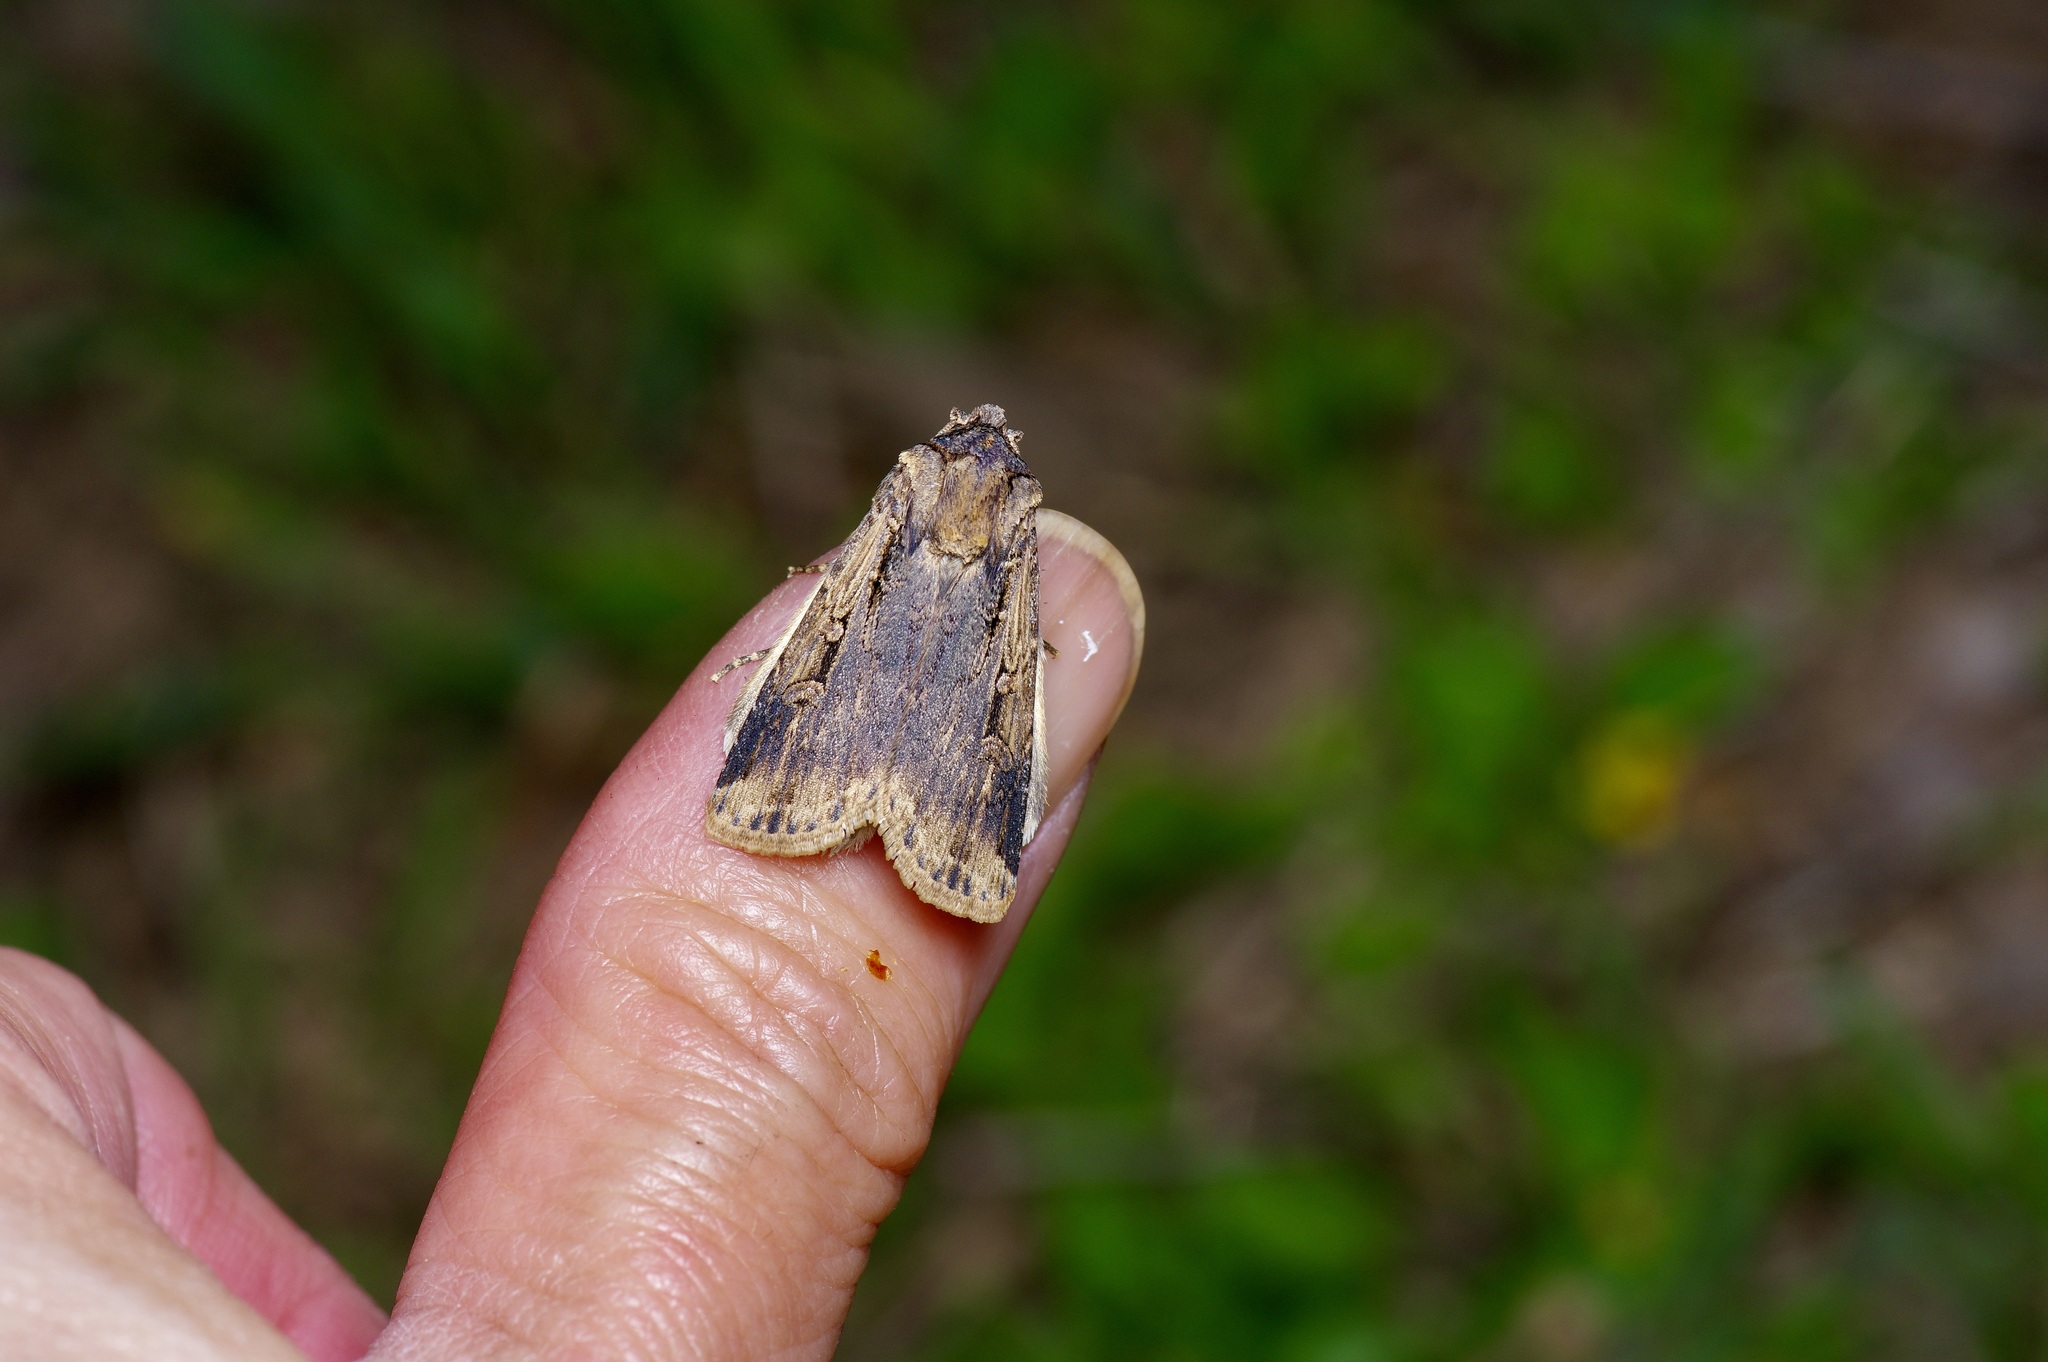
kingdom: Animalia
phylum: Arthropoda
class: Insecta
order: Lepidoptera
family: Noctuidae
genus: Feltia
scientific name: Feltia subterranea
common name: Granulate cutworm
